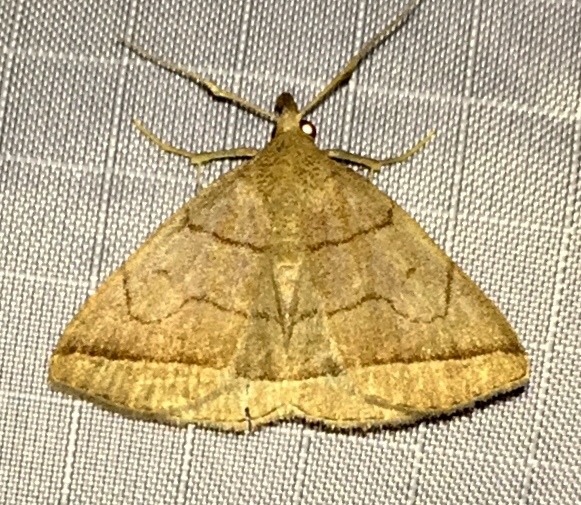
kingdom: Animalia
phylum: Arthropoda
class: Insecta
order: Lepidoptera
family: Erebidae
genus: Zanclognatha
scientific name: Zanclognatha cruralis
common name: Early fan-foot
